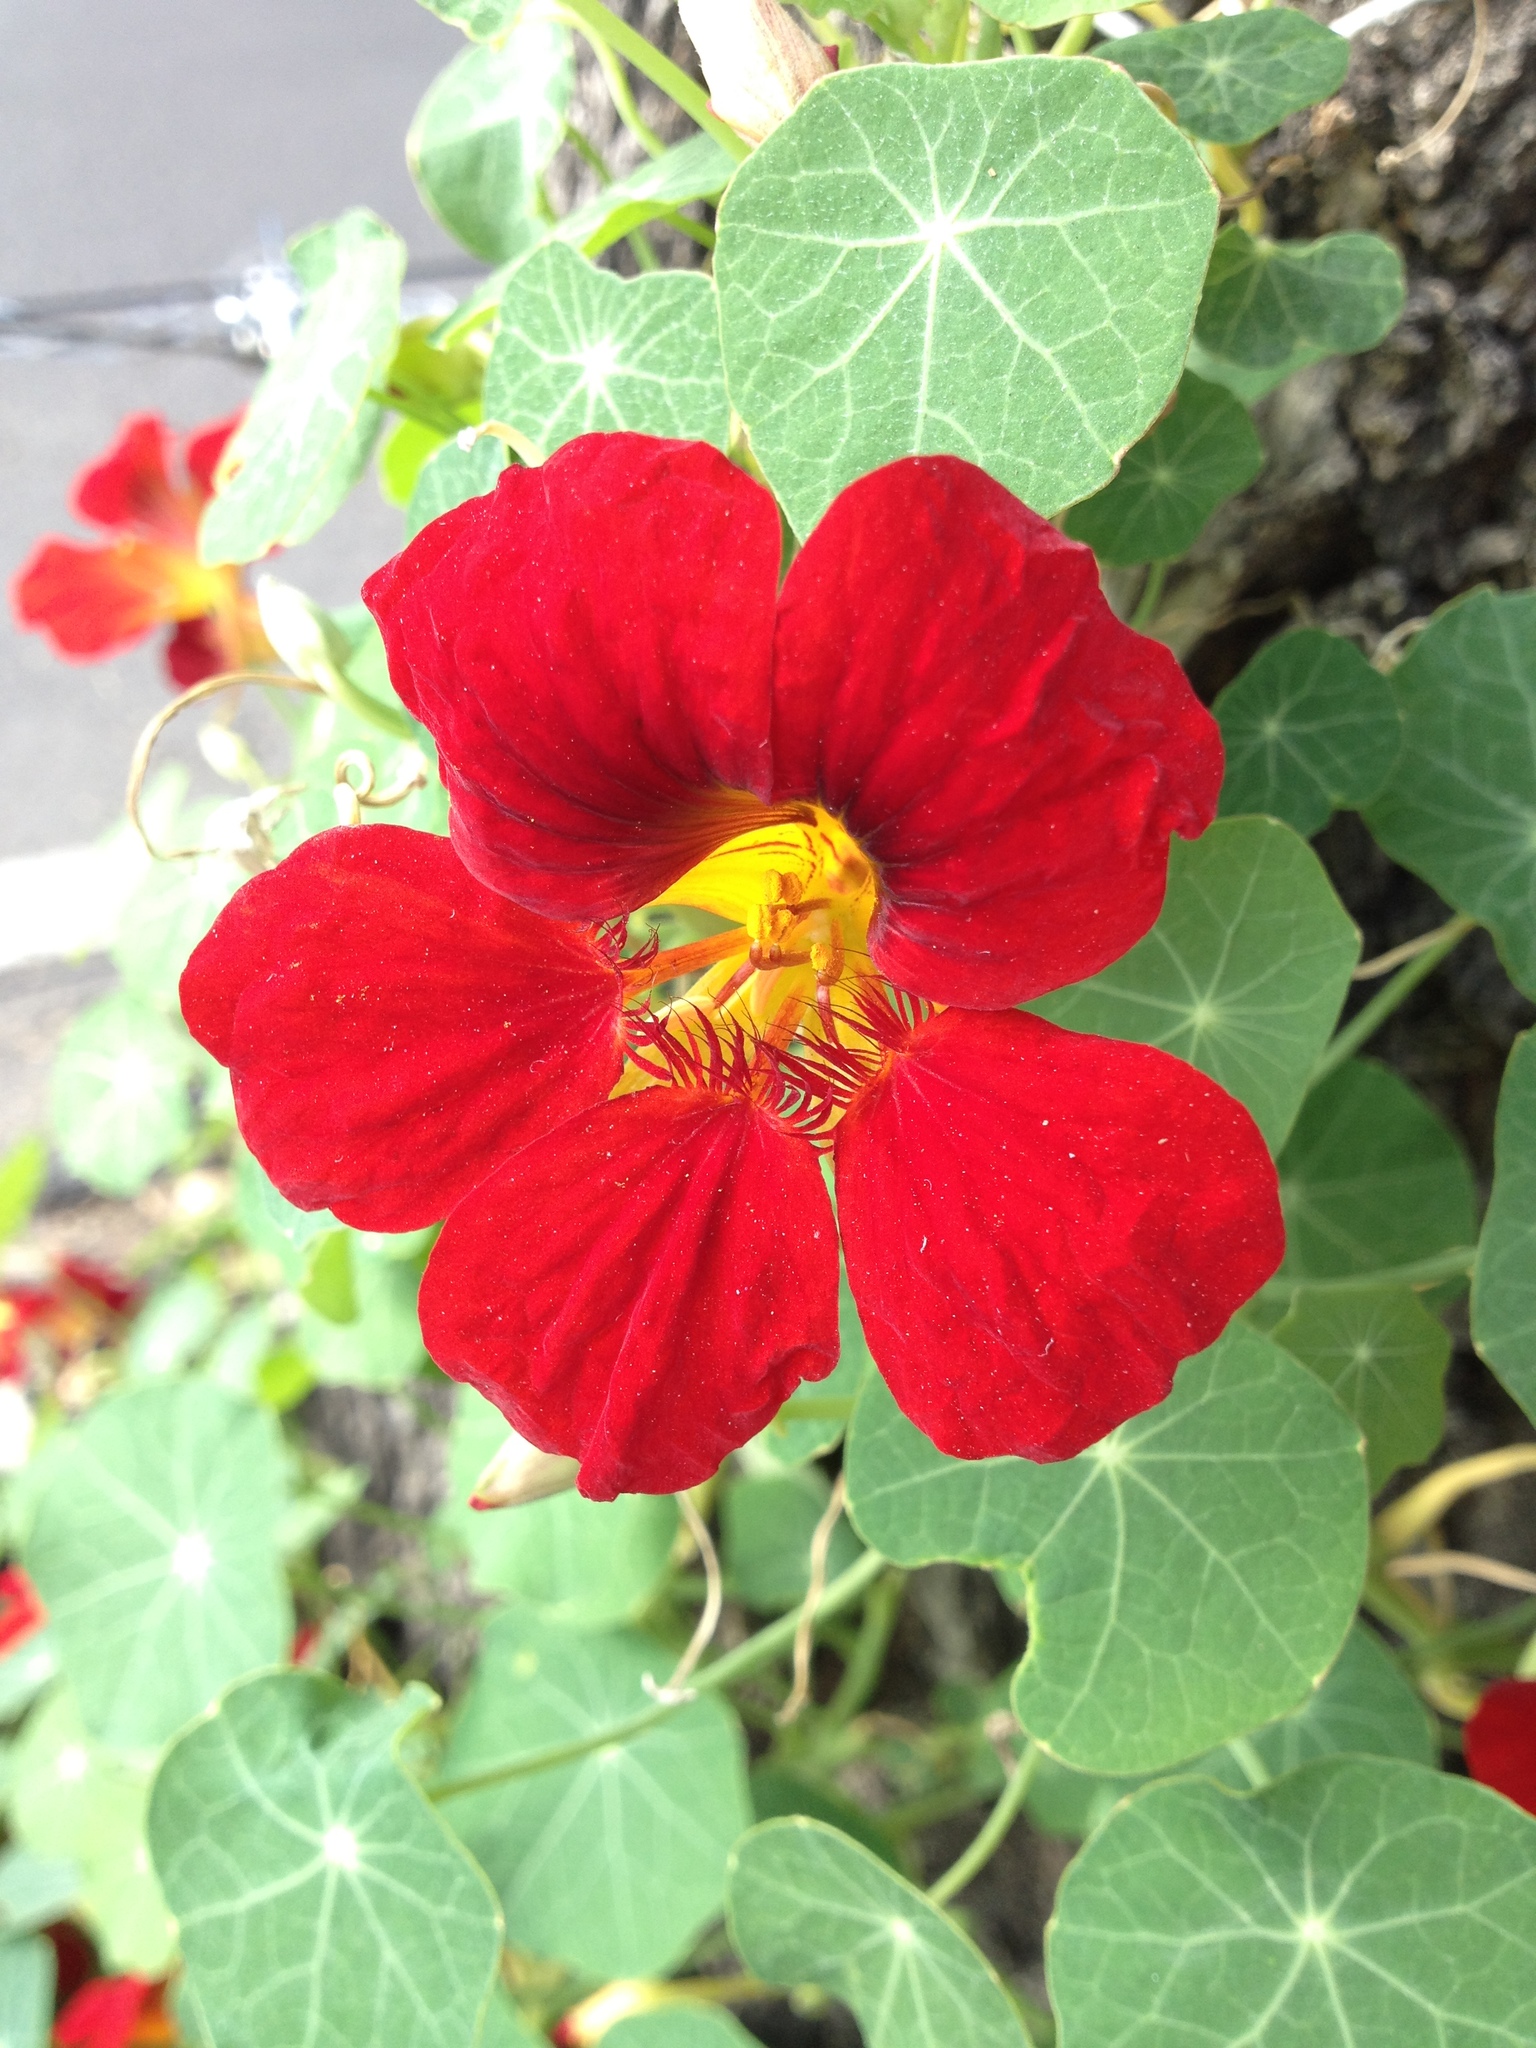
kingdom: Plantae
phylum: Tracheophyta
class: Magnoliopsida
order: Brassicales
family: Tropaeolaceae
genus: Tropaeolum
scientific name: Tropaeolum majus
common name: Nasturtium
